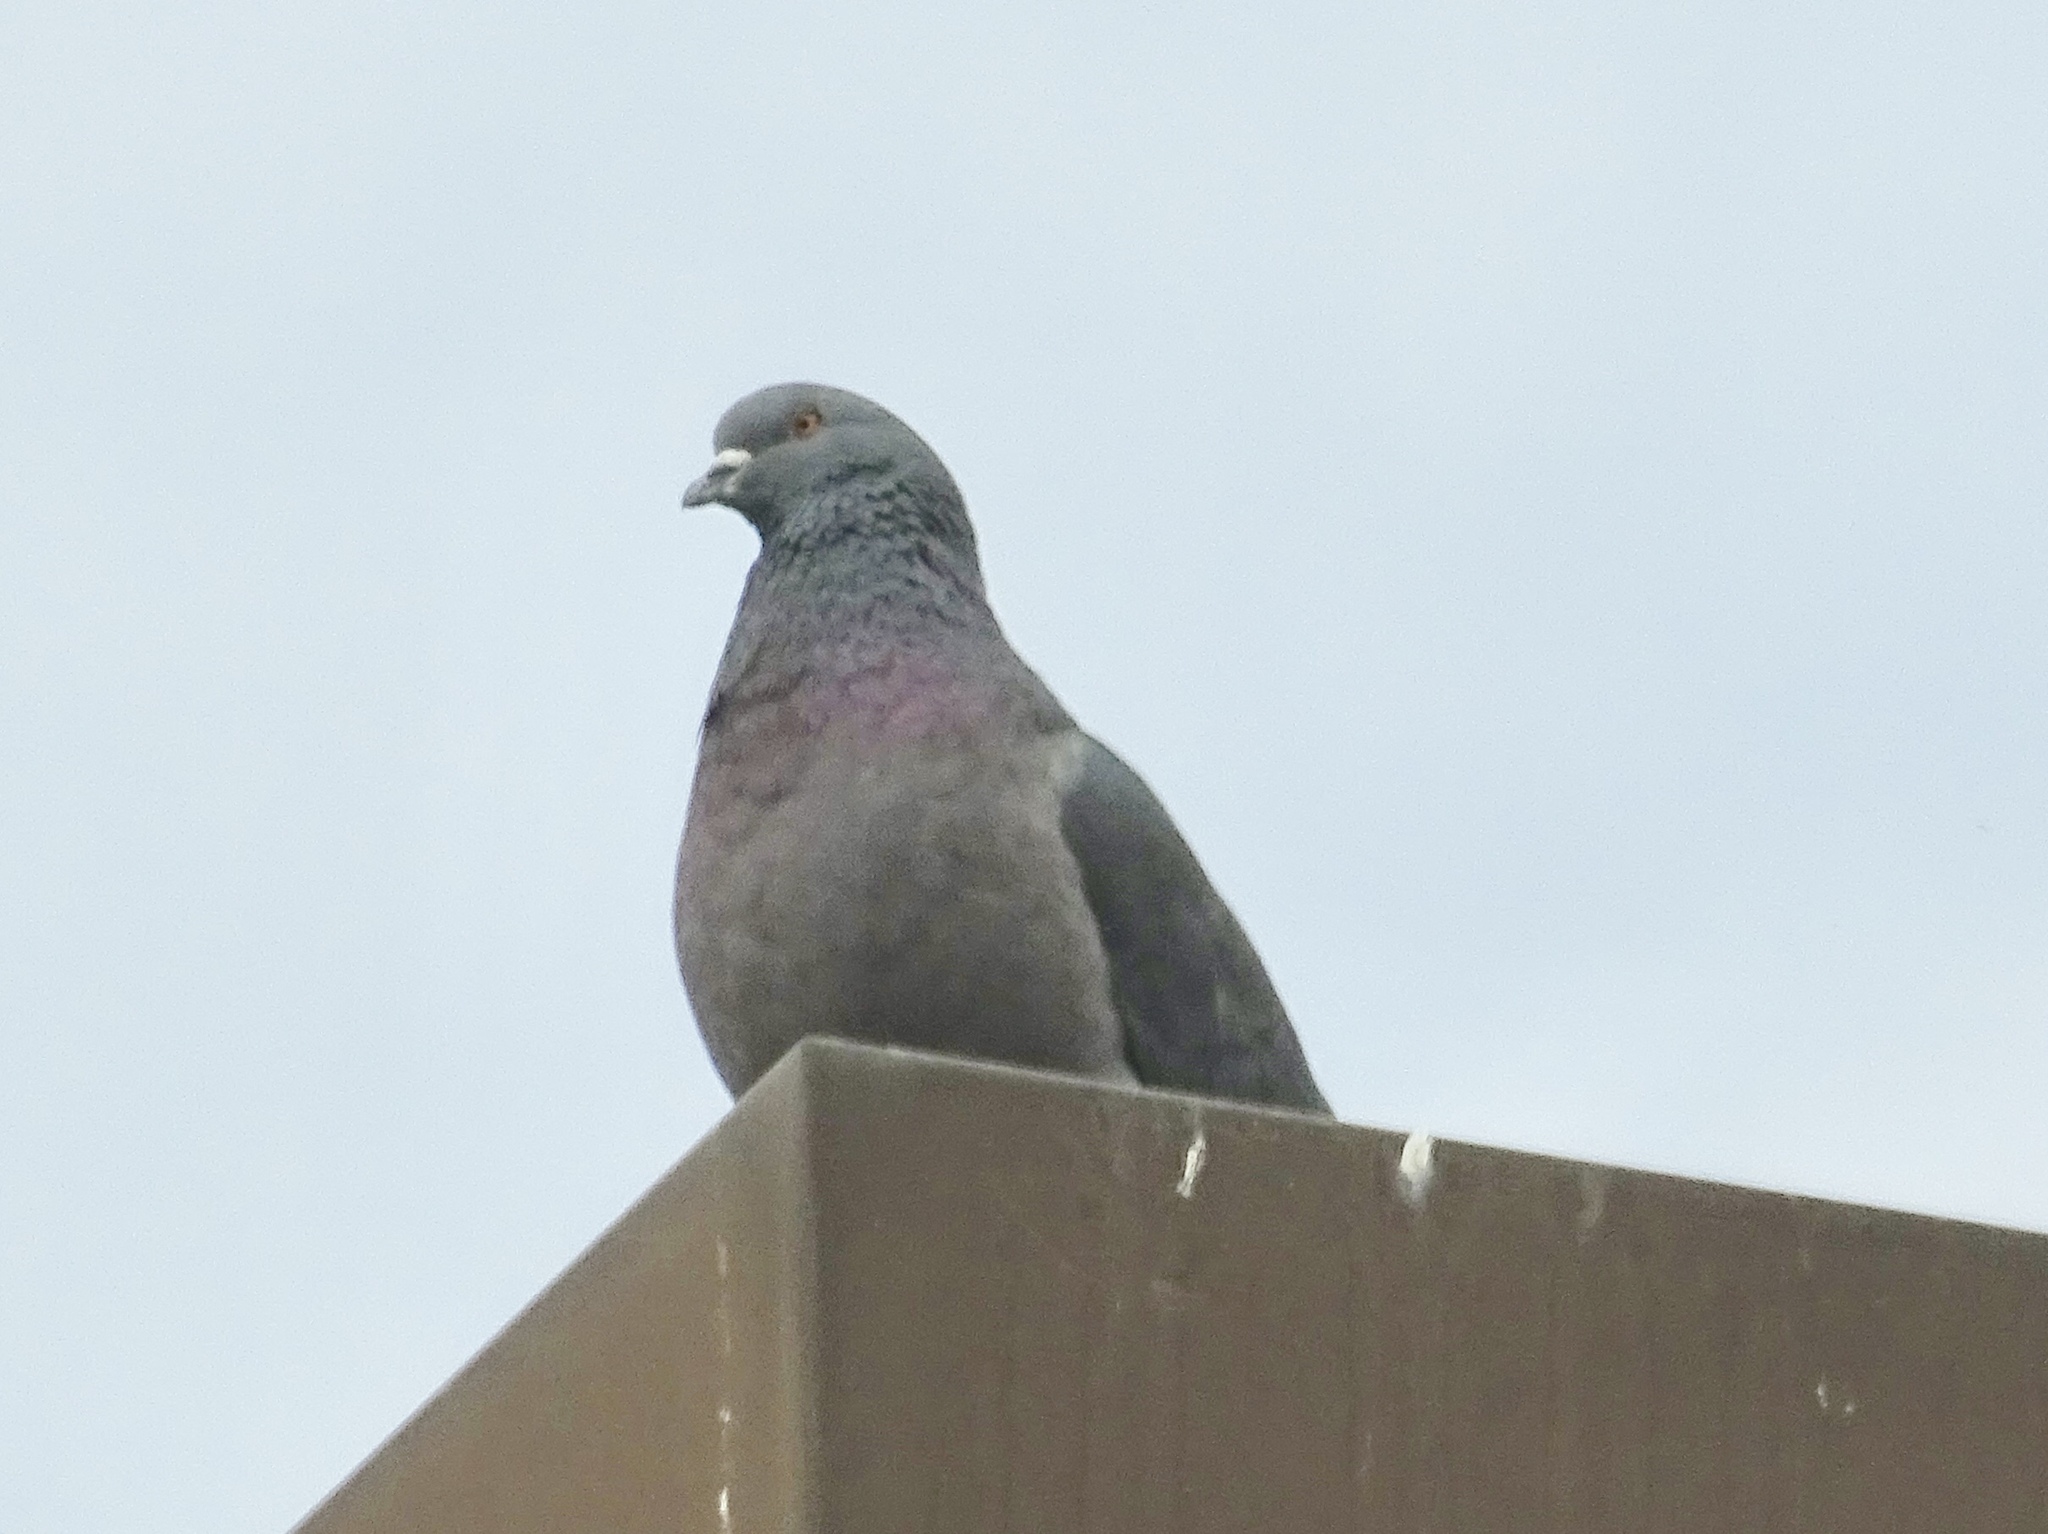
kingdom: Animalia
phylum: Chordata
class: Aves
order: Columbiformes
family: Columbidae
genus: Columba
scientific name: Columba livia
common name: Rock pigeon
